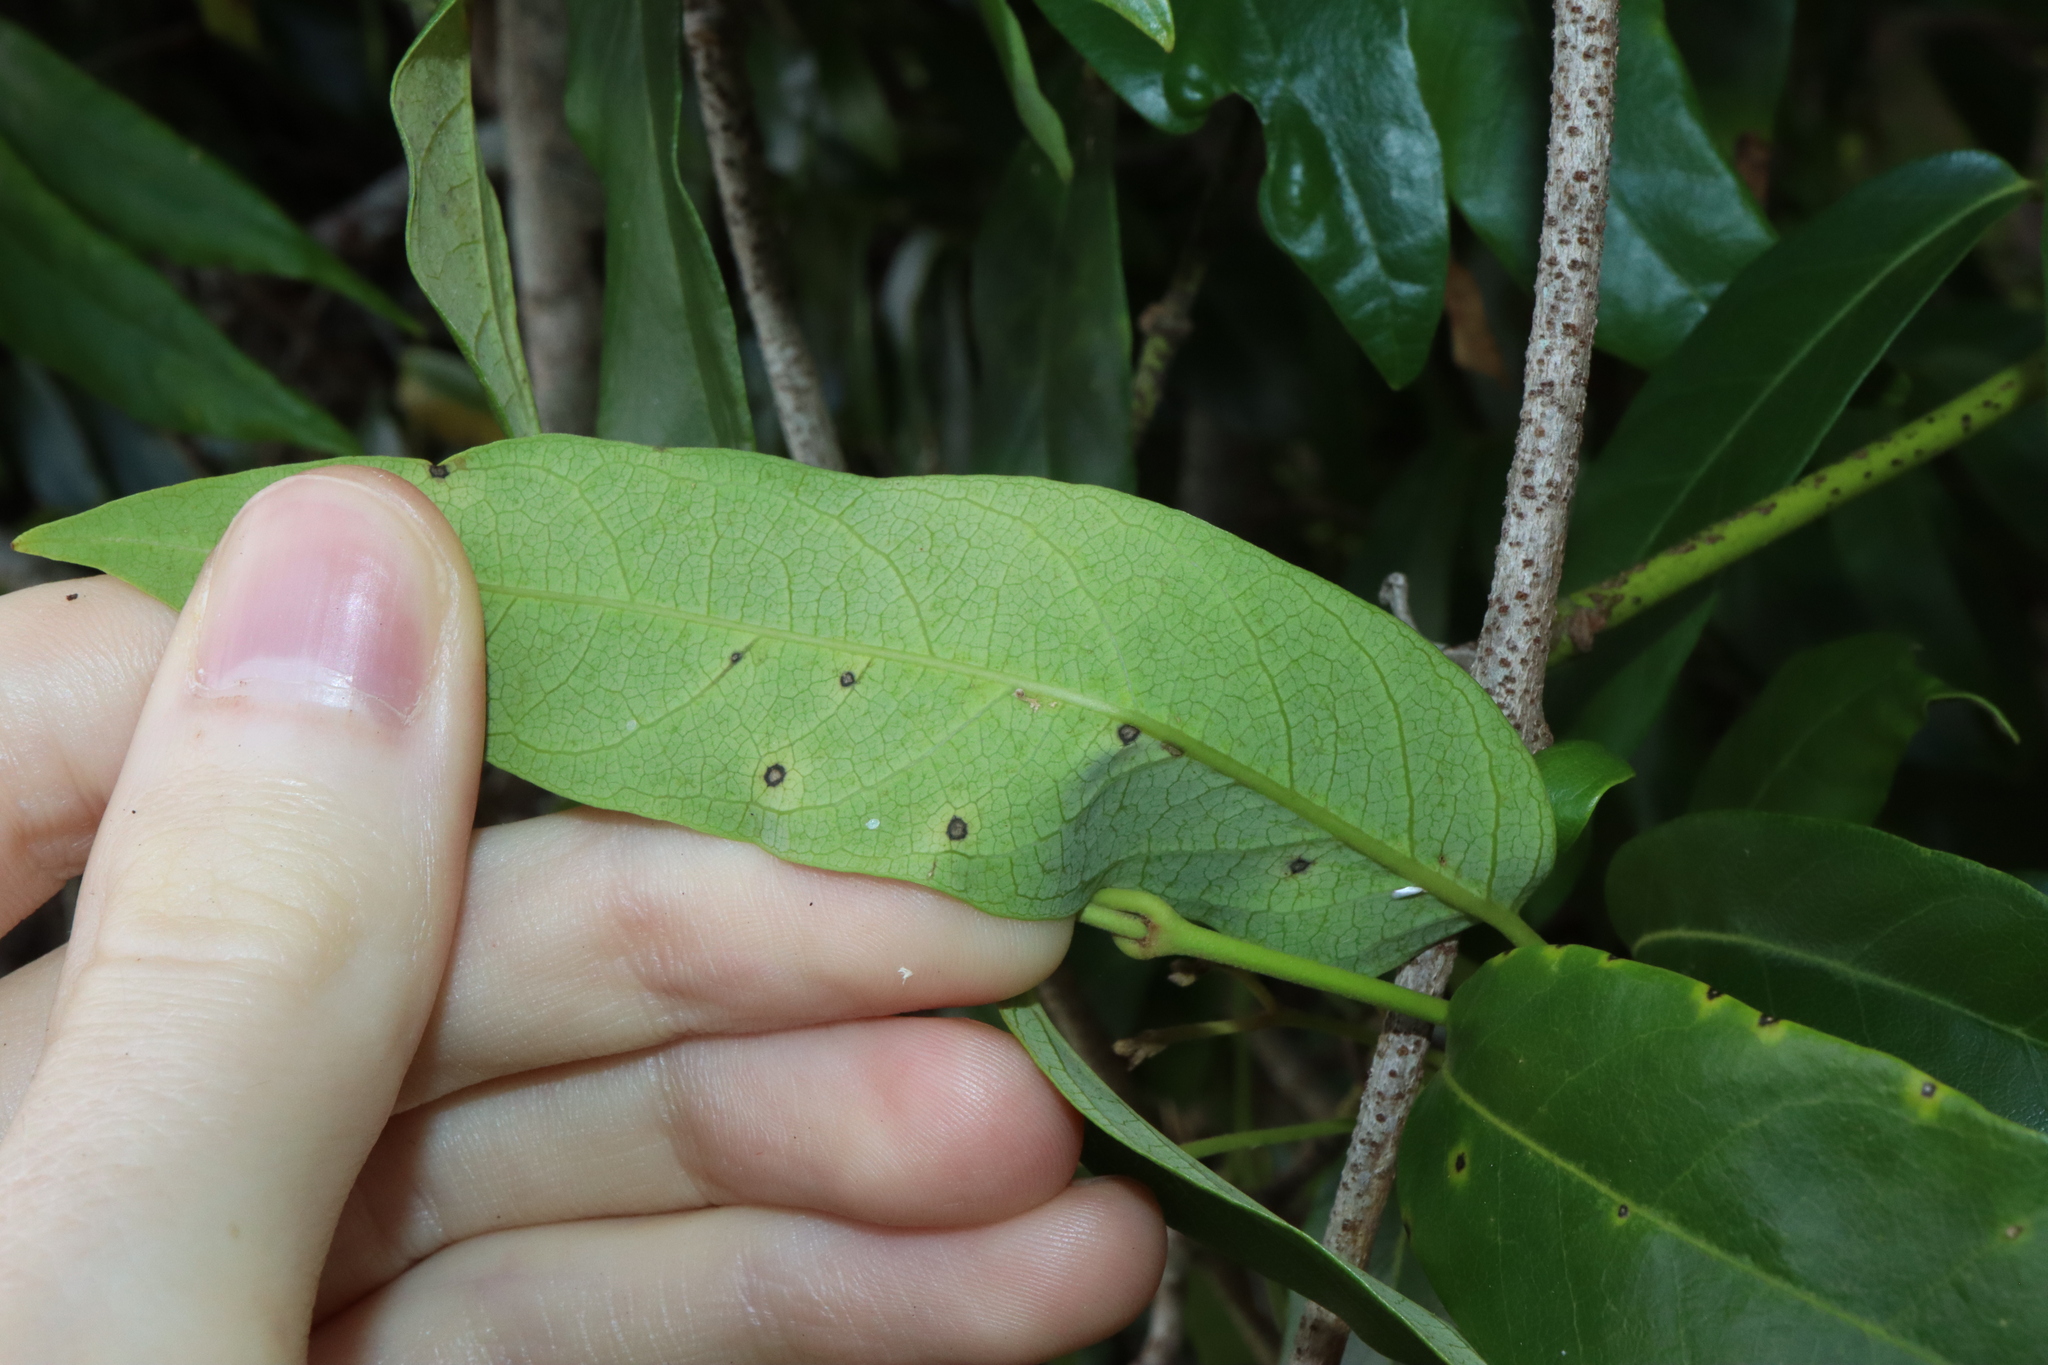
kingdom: Plantae
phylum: Tracheophyta
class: Magnoliopsida
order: Gentianales
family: Apocynaceae
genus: Parsonsia
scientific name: Parsonsia straminea
